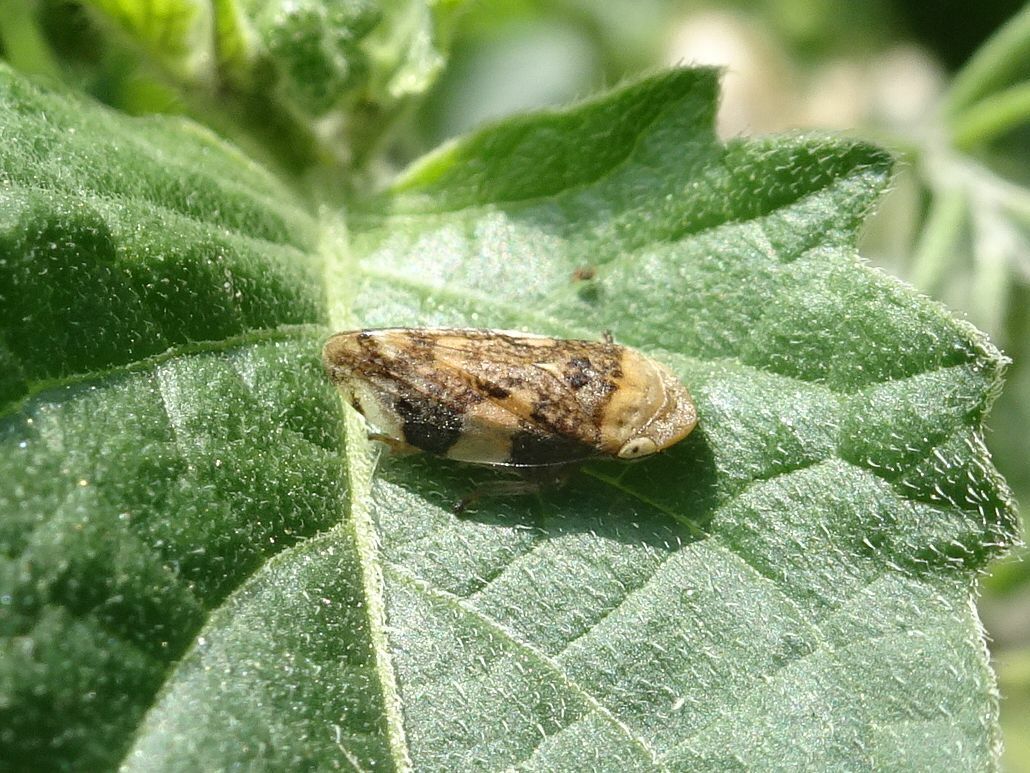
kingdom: Animalia
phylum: Arthropoda
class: Insecta
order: Hemiptera
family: Aphrophoridae
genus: Philaenus
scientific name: Philaenus spumarius
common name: Meadow spittlebug
